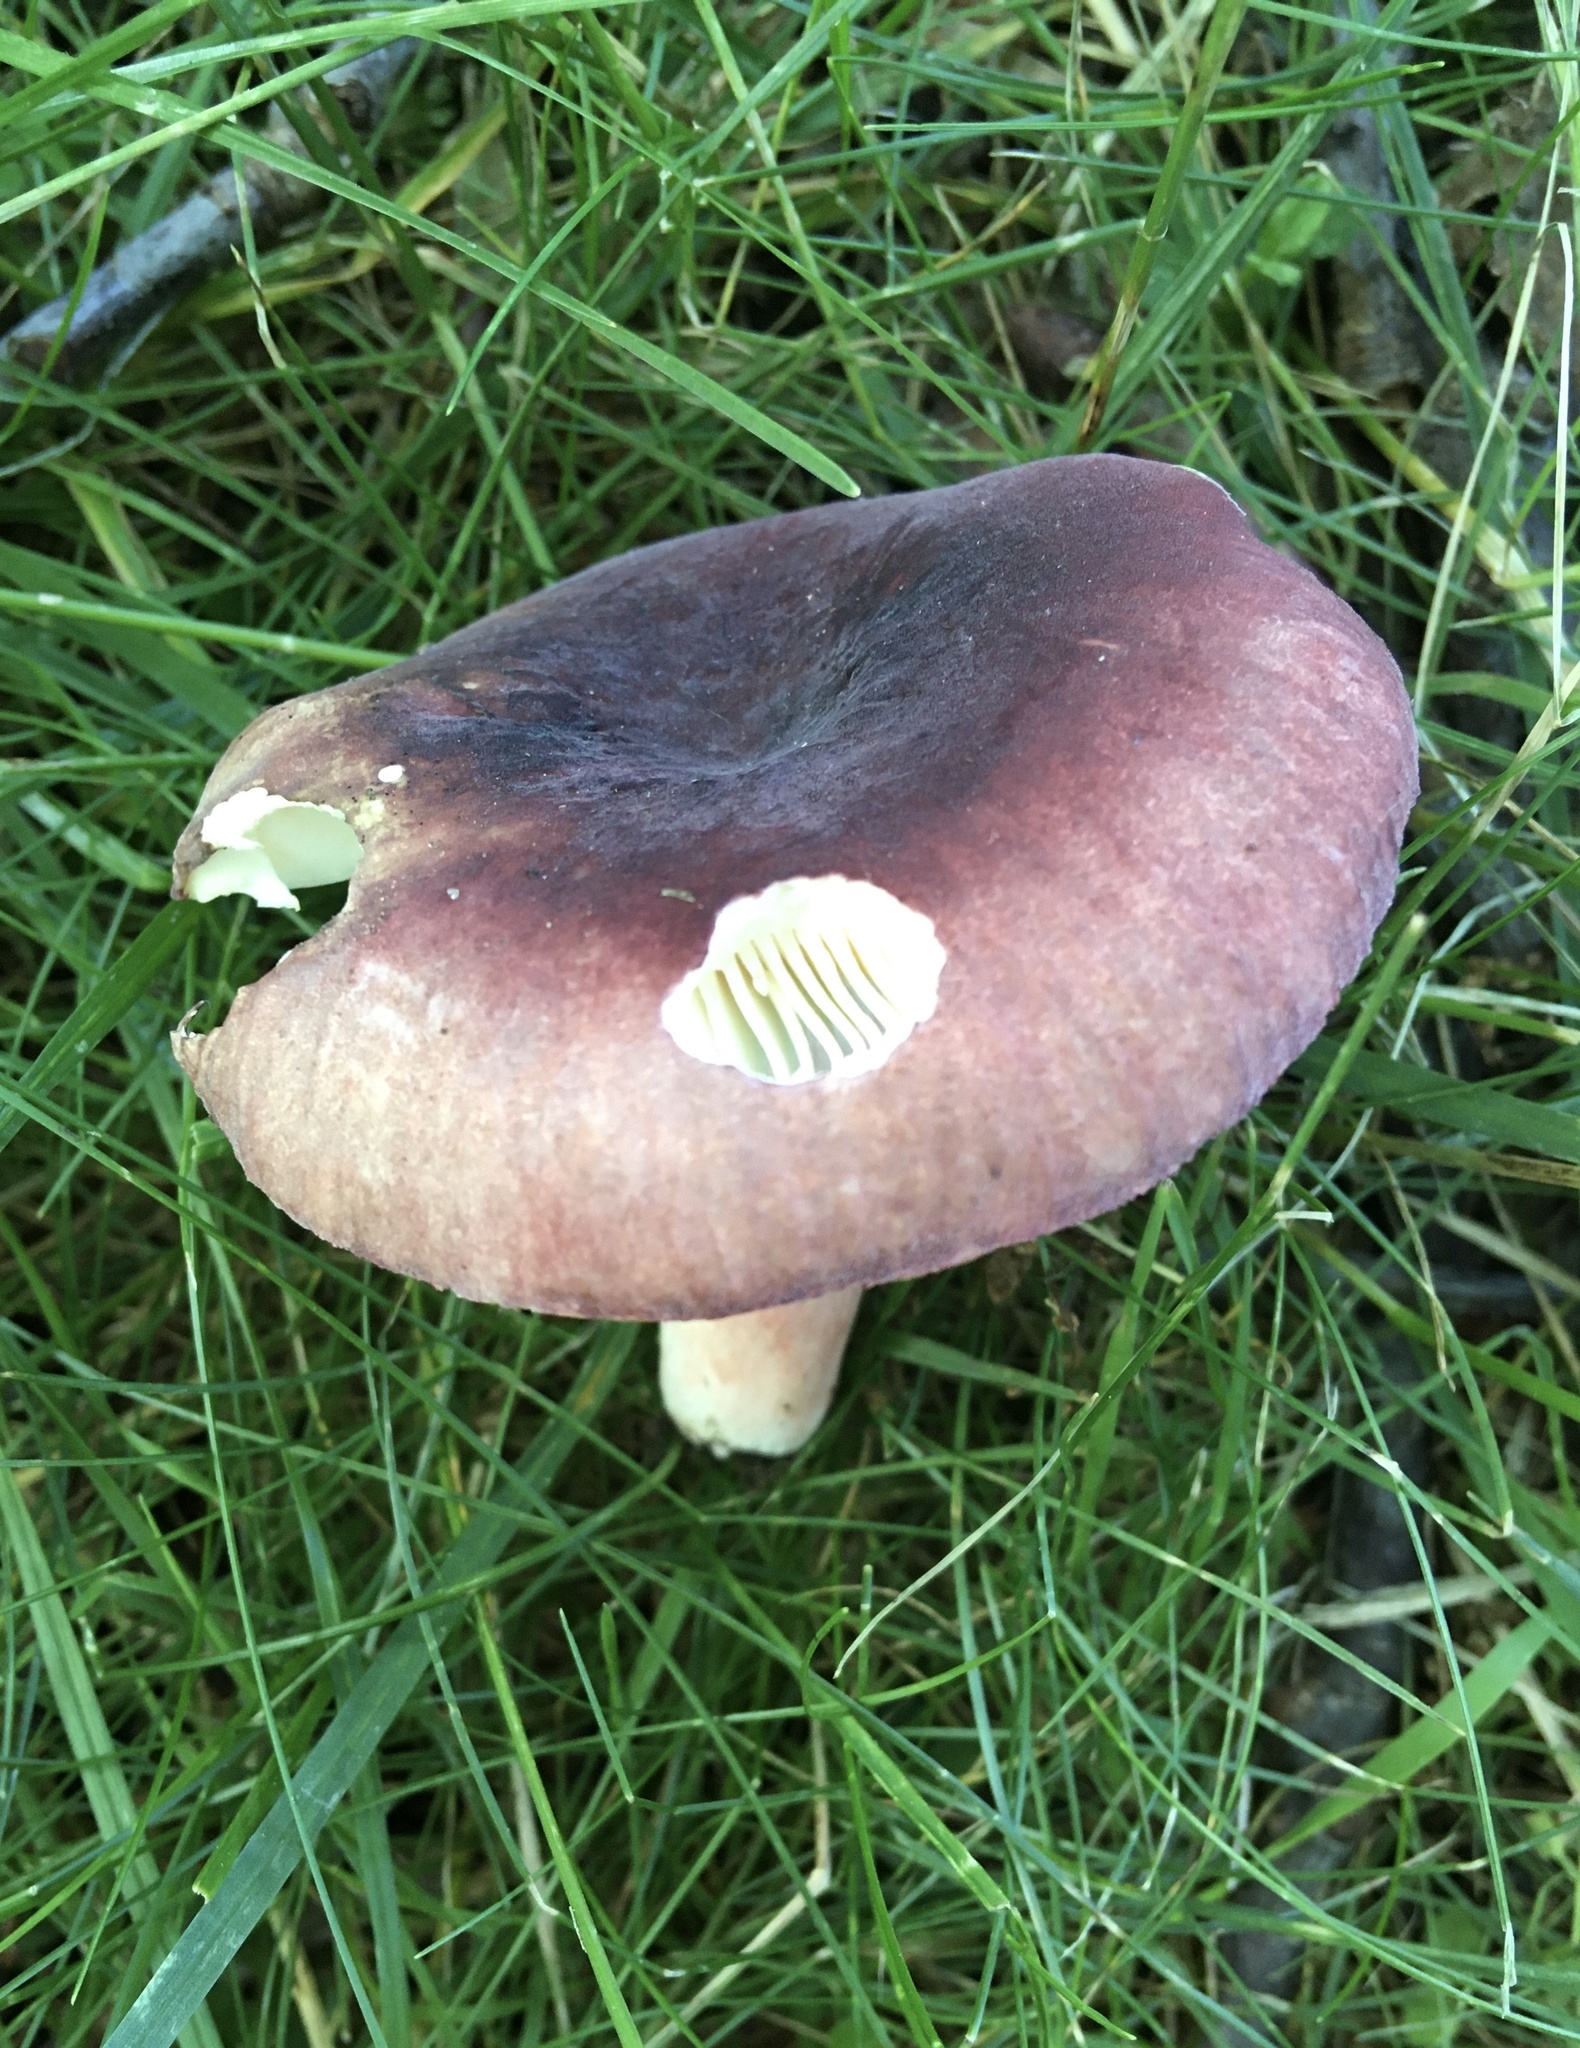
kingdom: Fungi
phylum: Basidiomycota
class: Agaricomycetes
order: Russulales
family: Russulaceae
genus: Russula
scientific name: Russula mariae
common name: Purple-bloom russula
